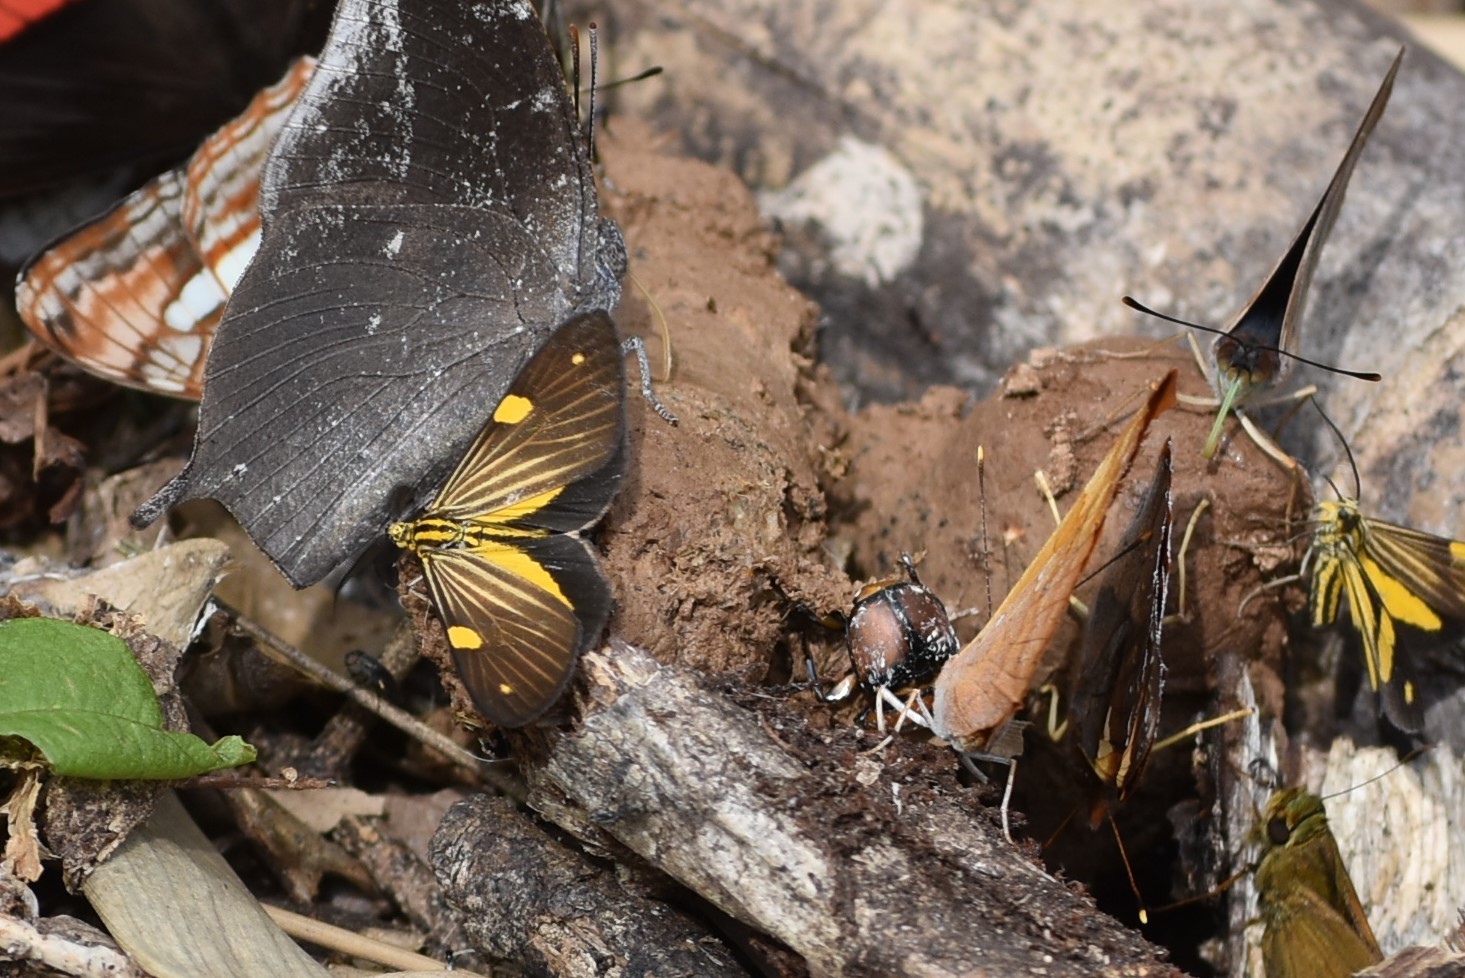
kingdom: Animalia
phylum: Arthropoda
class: Insecta
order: Lepidoptera
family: Notodontidae
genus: Phaeochlaena
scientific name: Phaeochlaena
